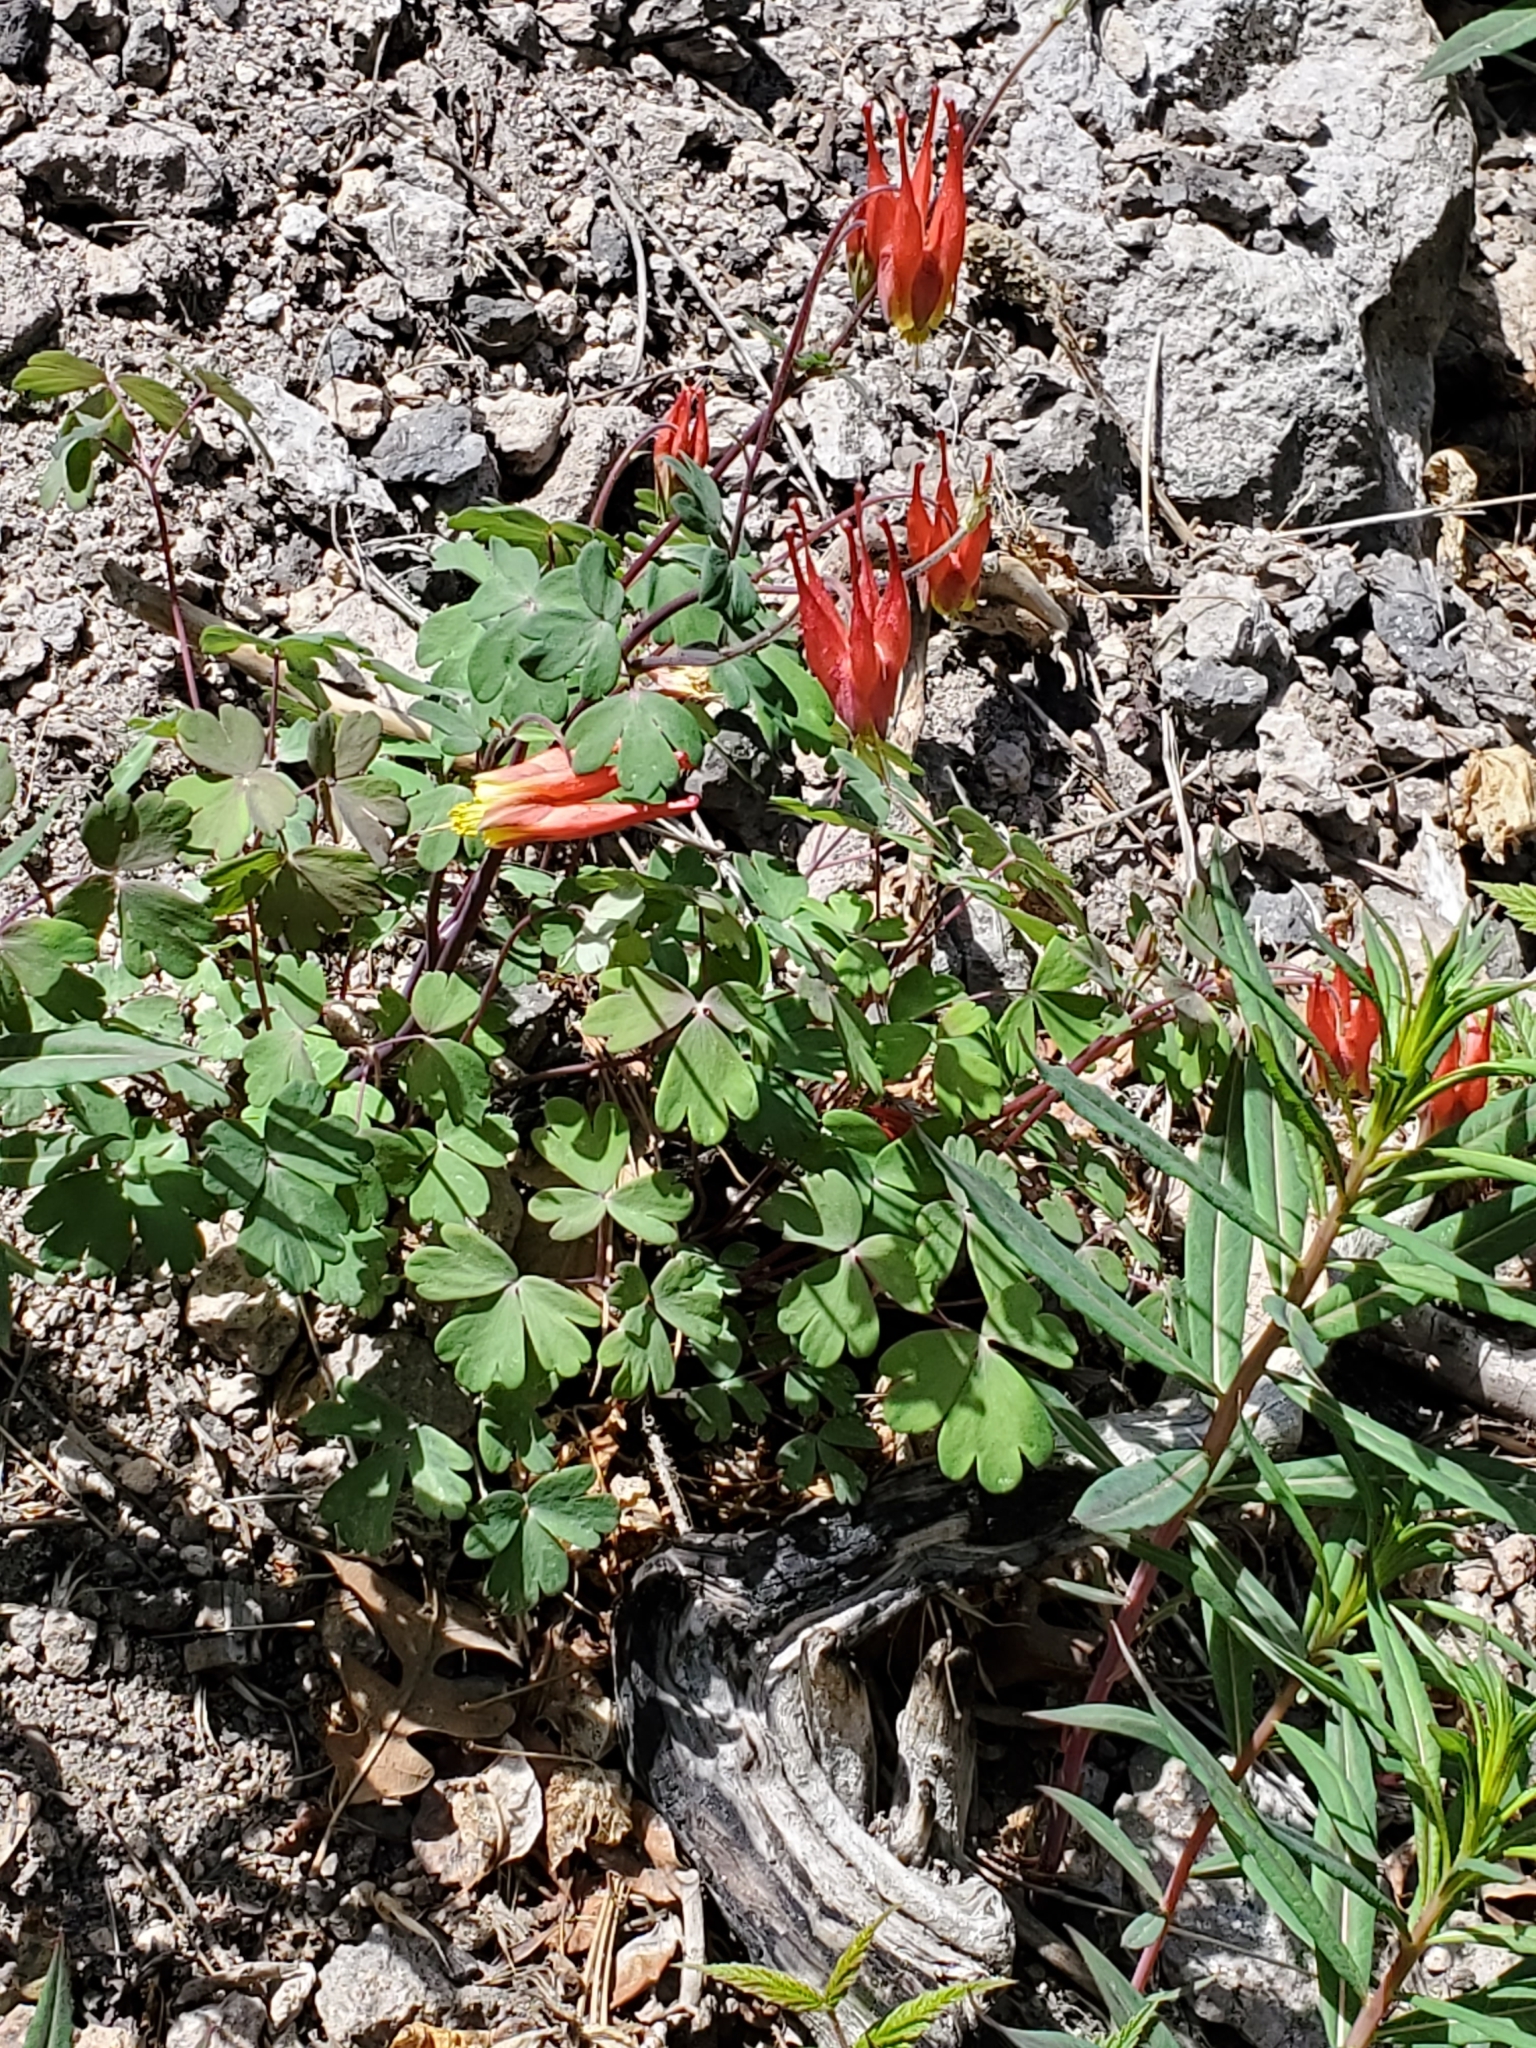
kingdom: Plantae
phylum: Tracheophyta
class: Magnoliopsida
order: Ranunculales
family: Ranunculaceae
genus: Aquilegia
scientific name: Aquilegia elegantula
